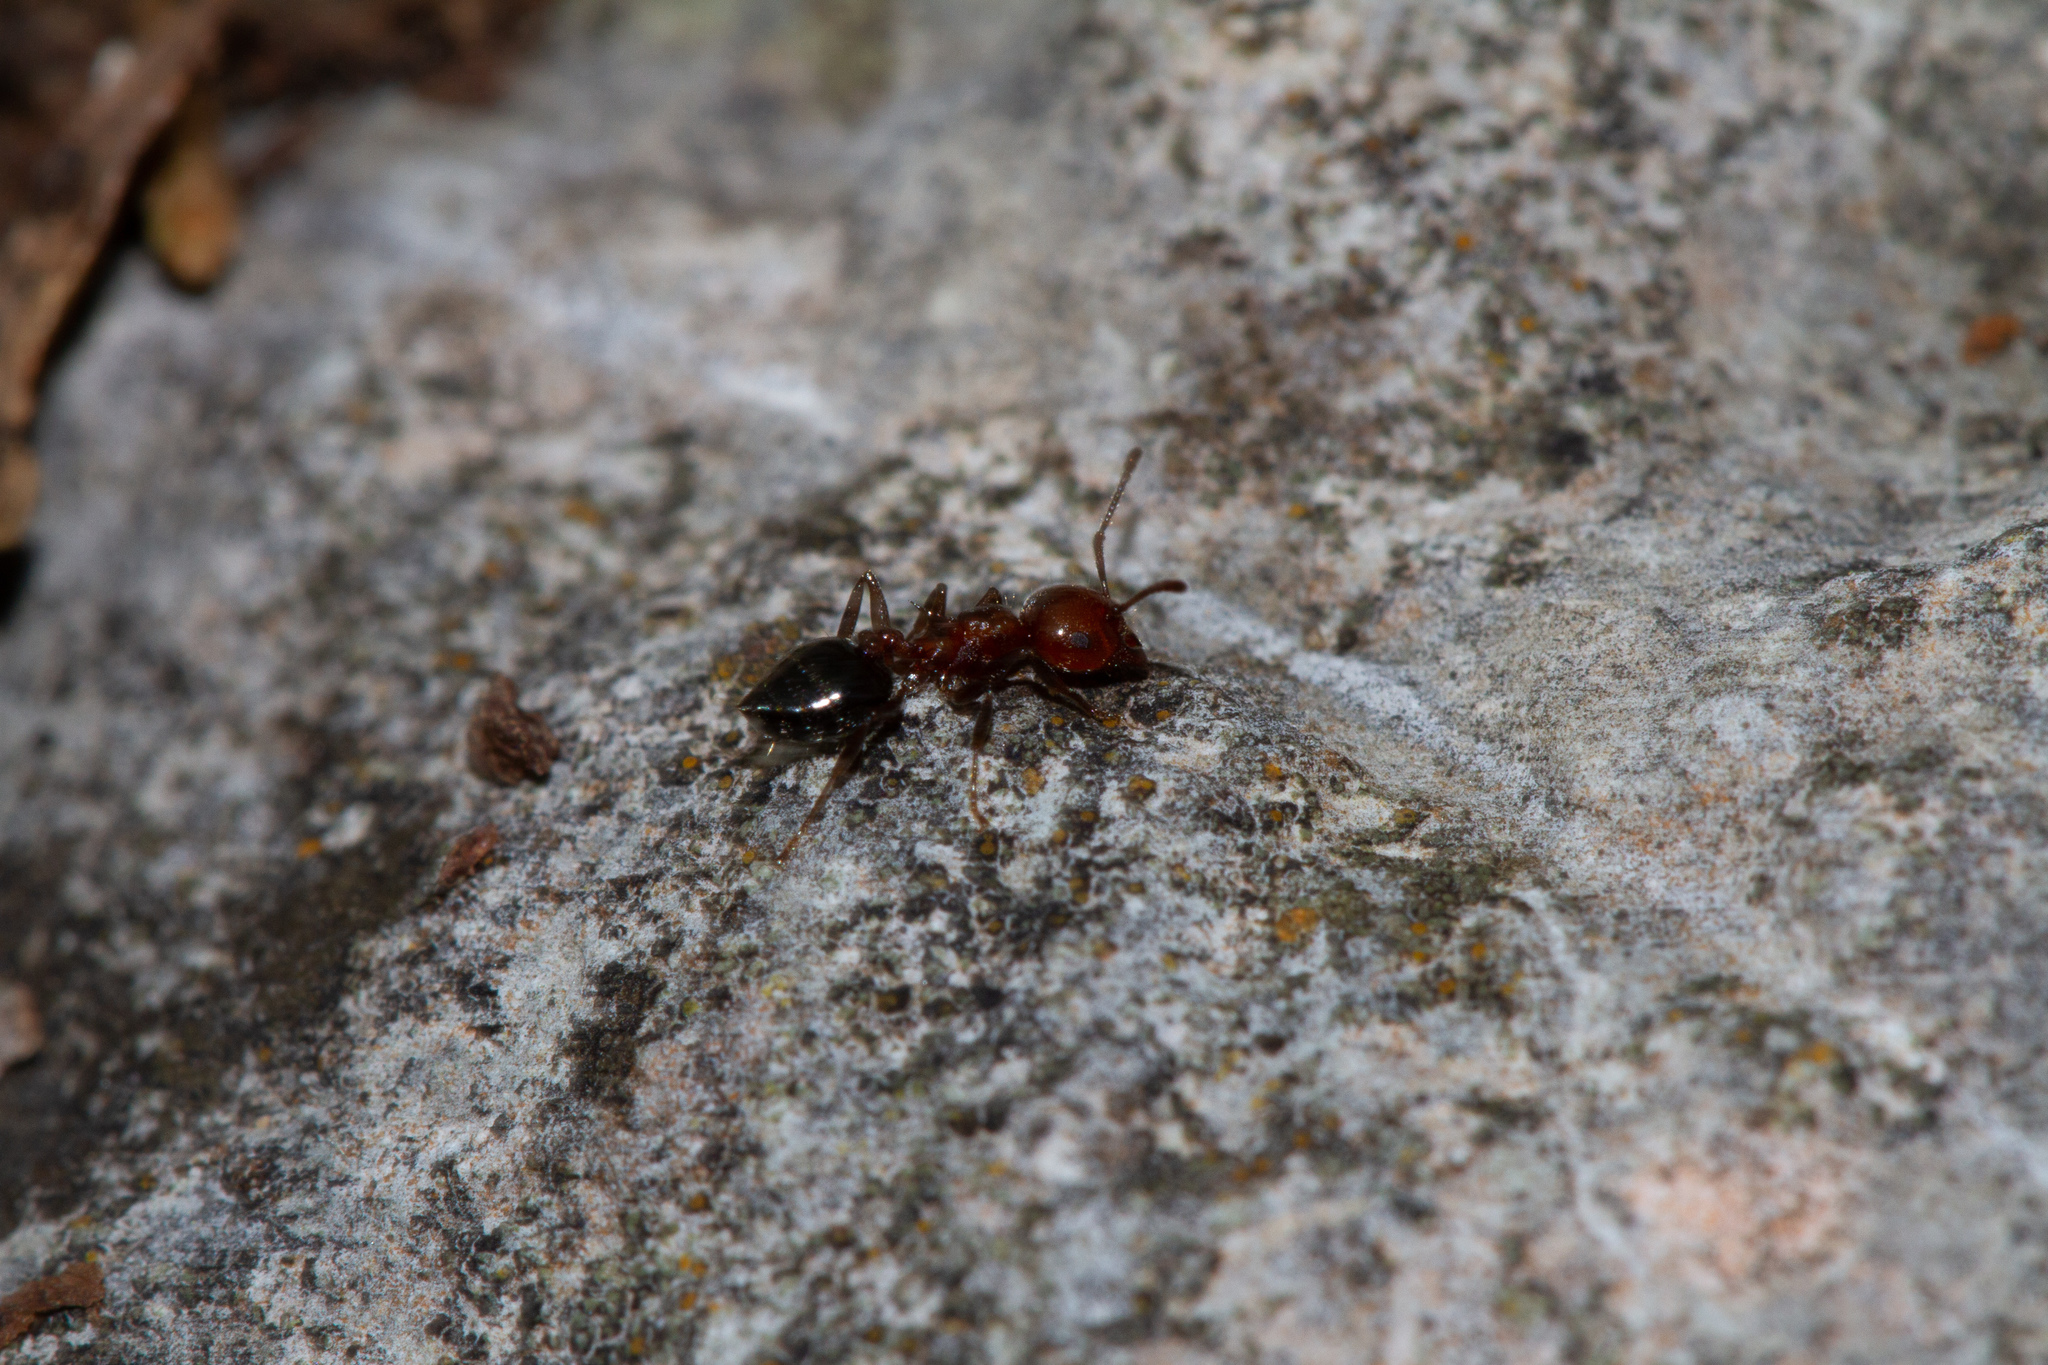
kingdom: Animalia
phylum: Arthropoda
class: Insecta
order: Hymenoptera
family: Formicidae
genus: Crematogaster
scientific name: Crematogaster laeviuscula
